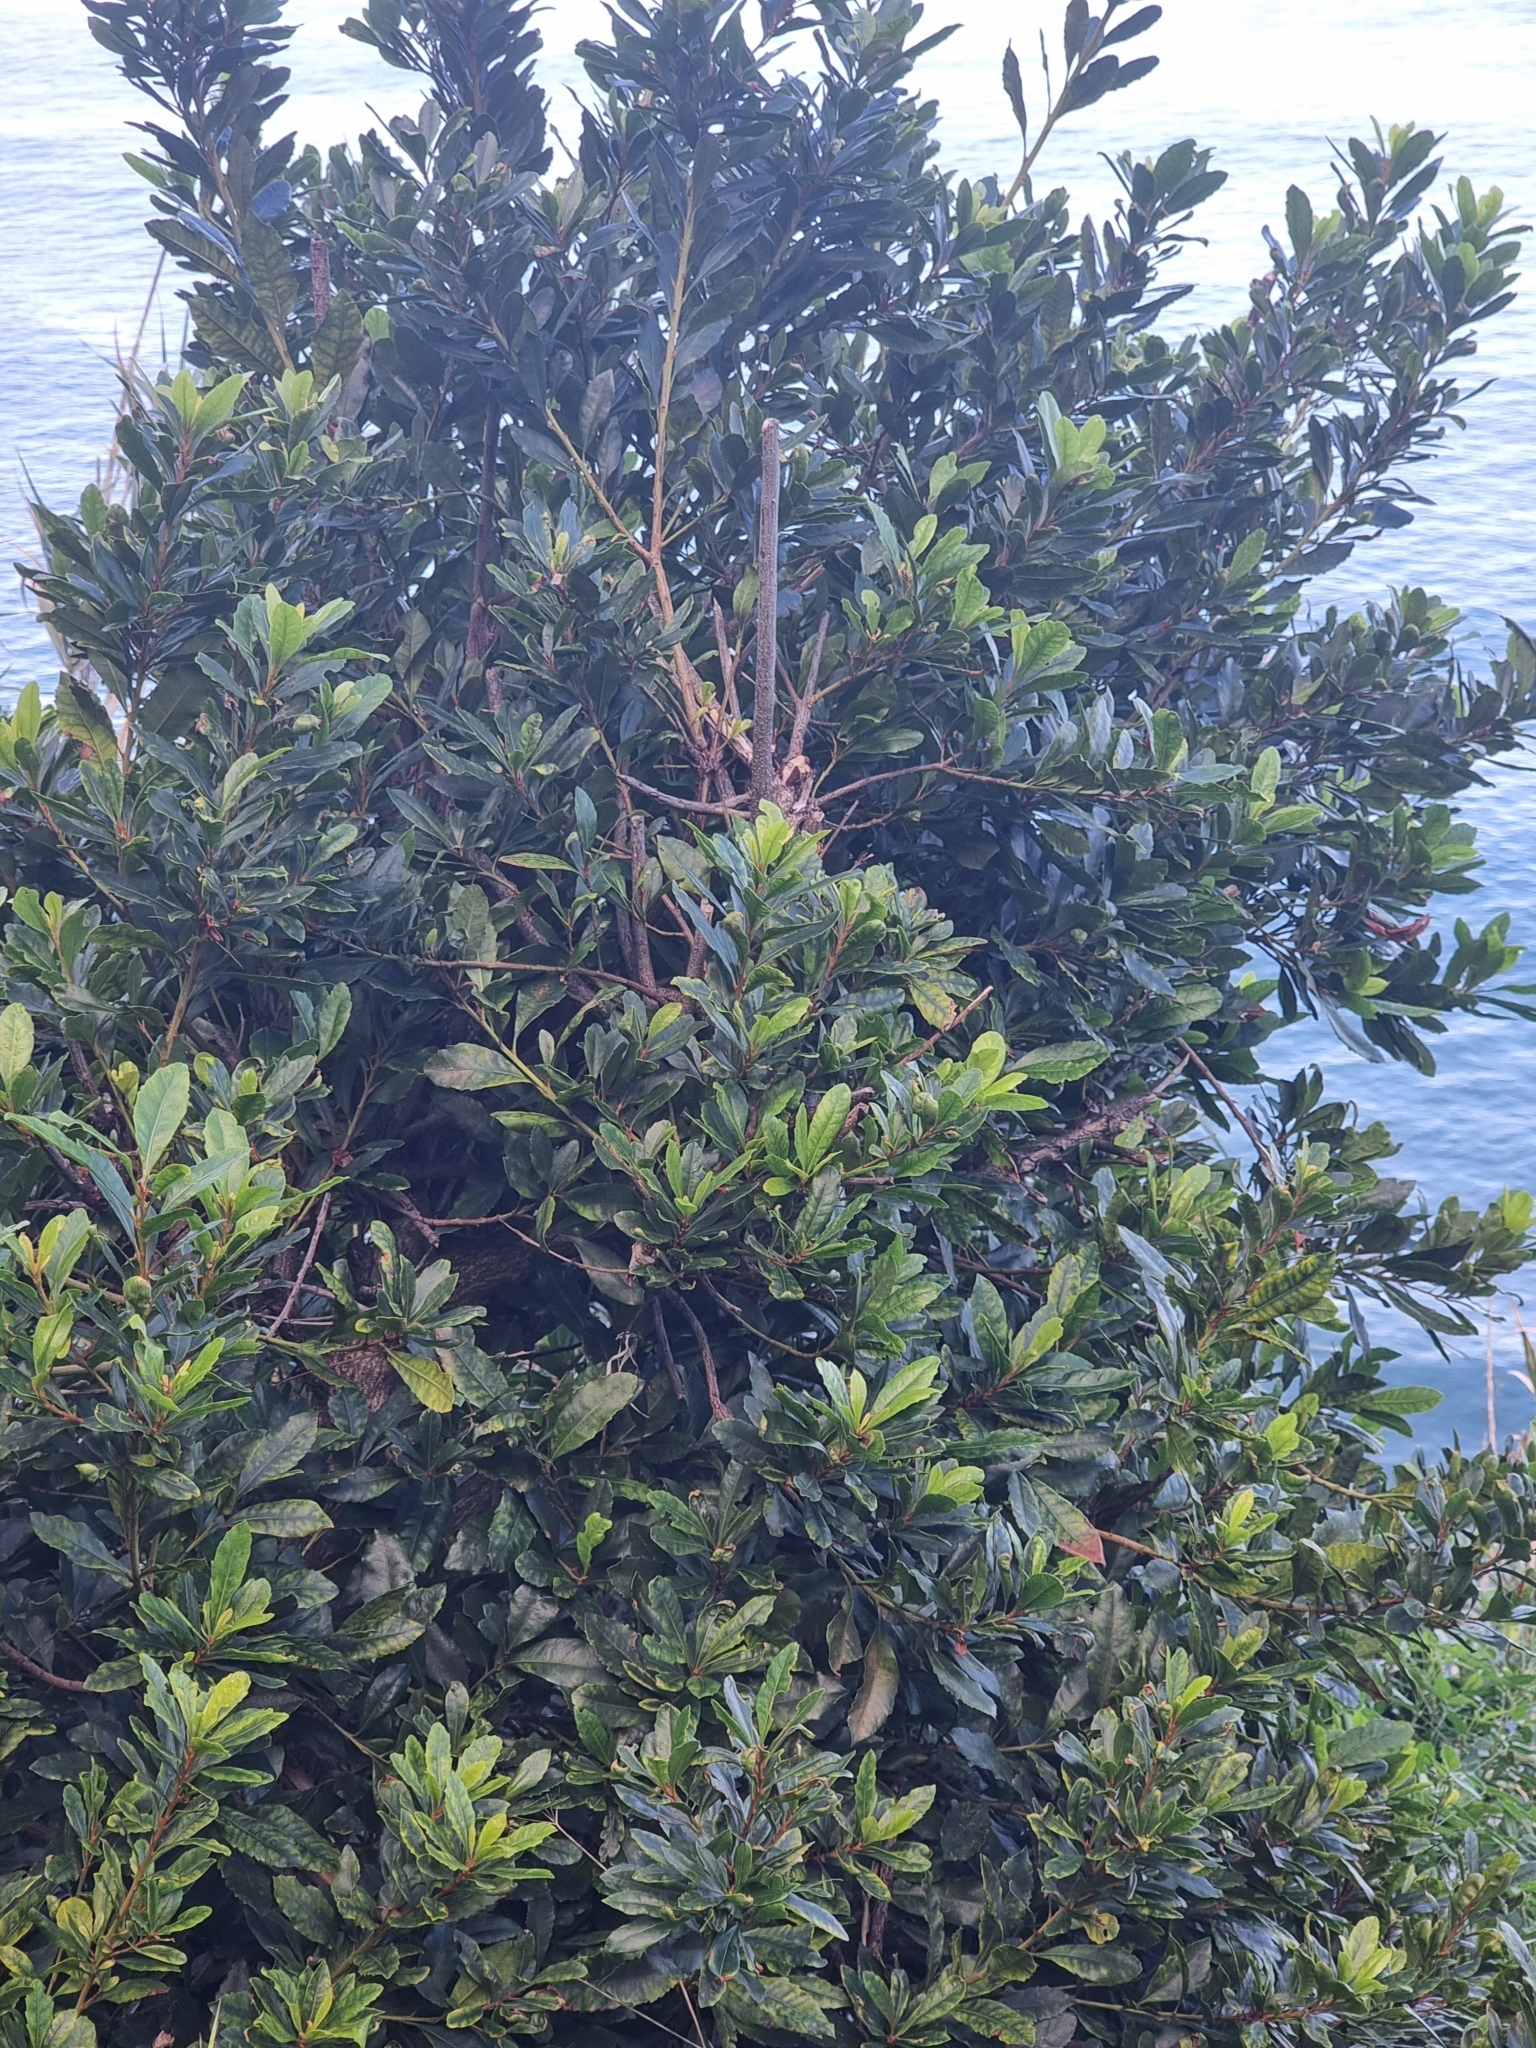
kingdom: Plantae
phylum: Tracheophyta
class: Magnoliopsida
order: Fagales
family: Myricaceae
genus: Morella
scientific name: Morella faya
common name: Firetree
